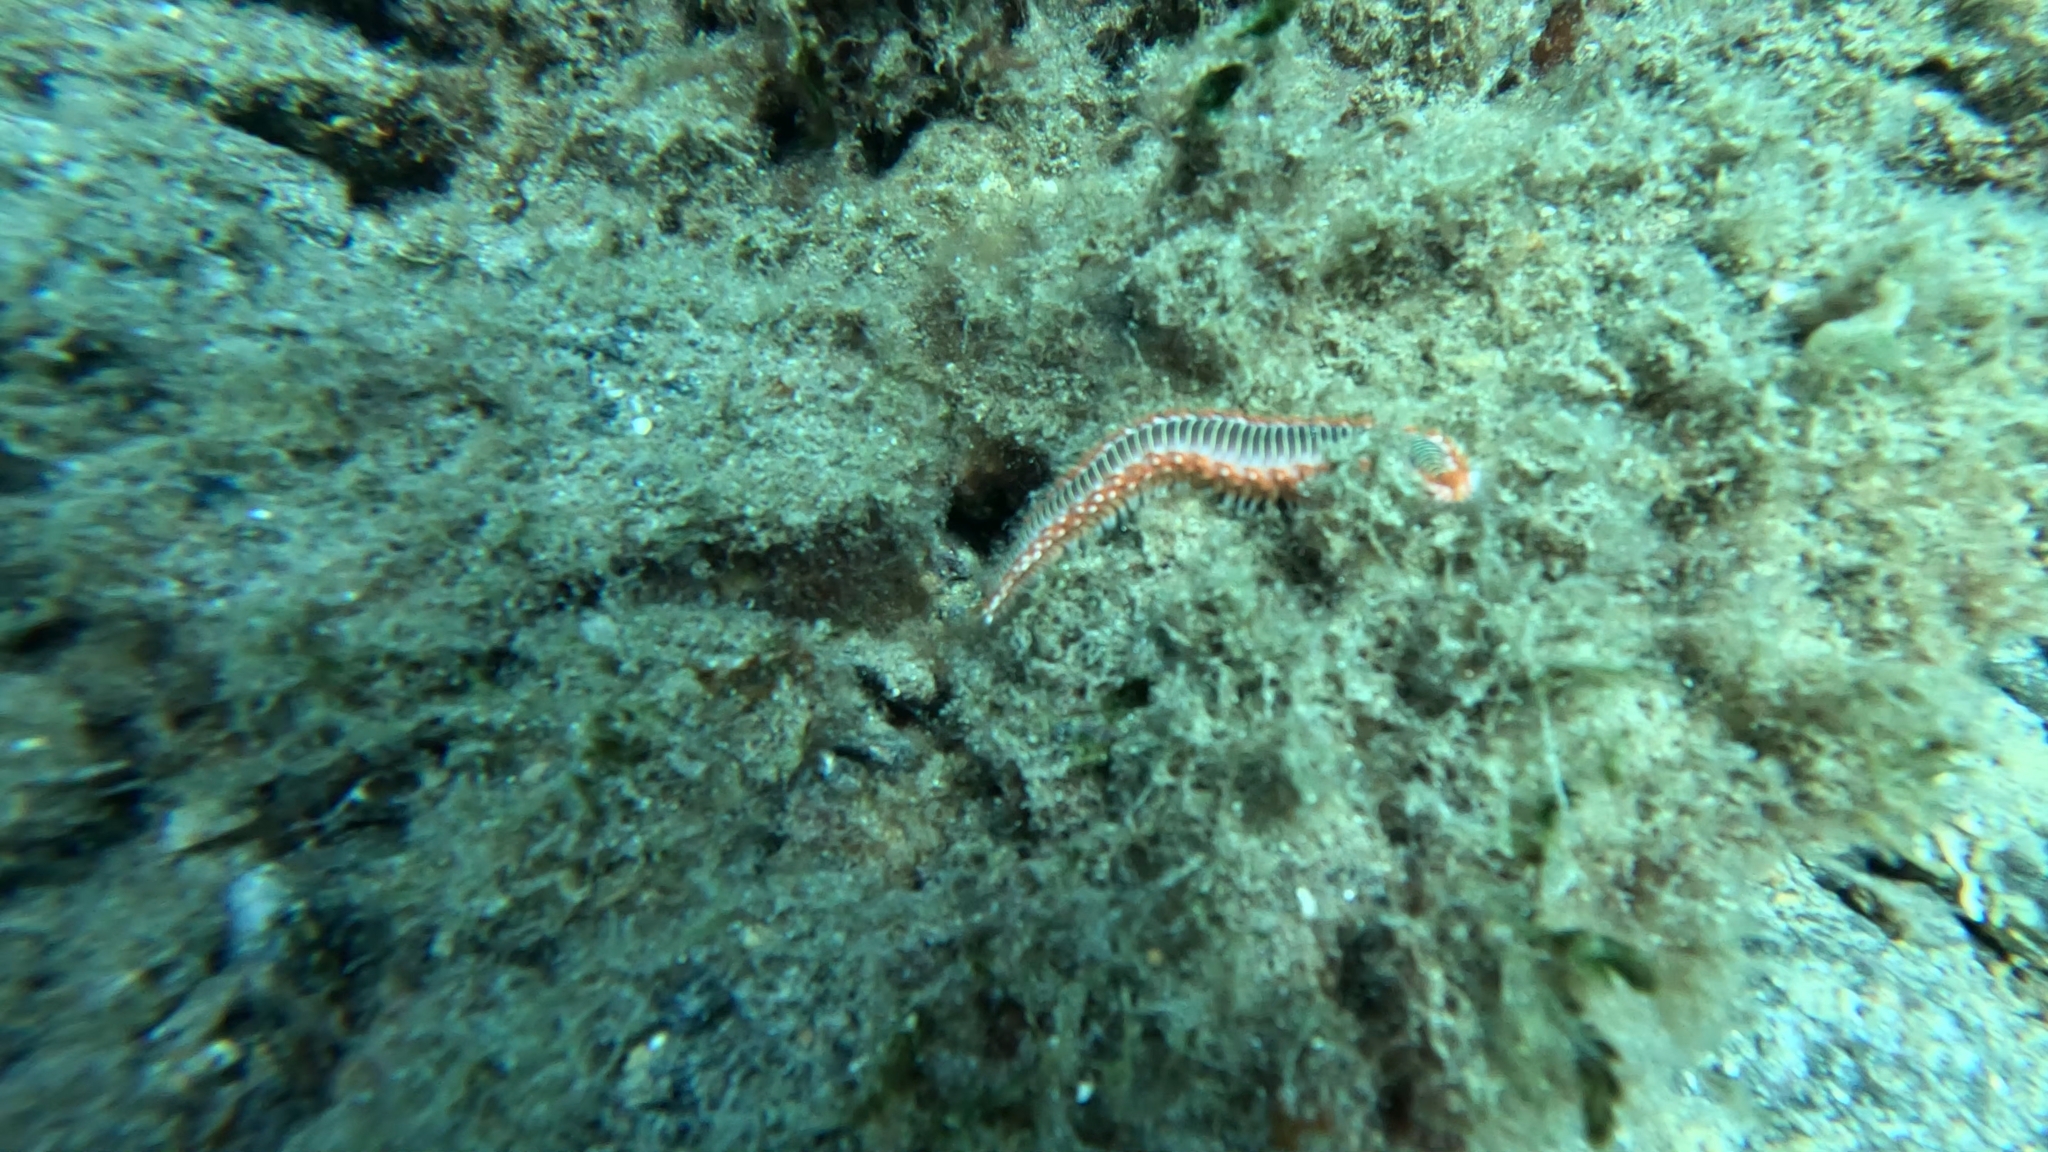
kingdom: Animalia
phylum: Annelida
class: Polychaeta
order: Amphinomida
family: Amphinomidae
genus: Hermodice
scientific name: Hermodice carunculata
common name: Bearded fireworm
